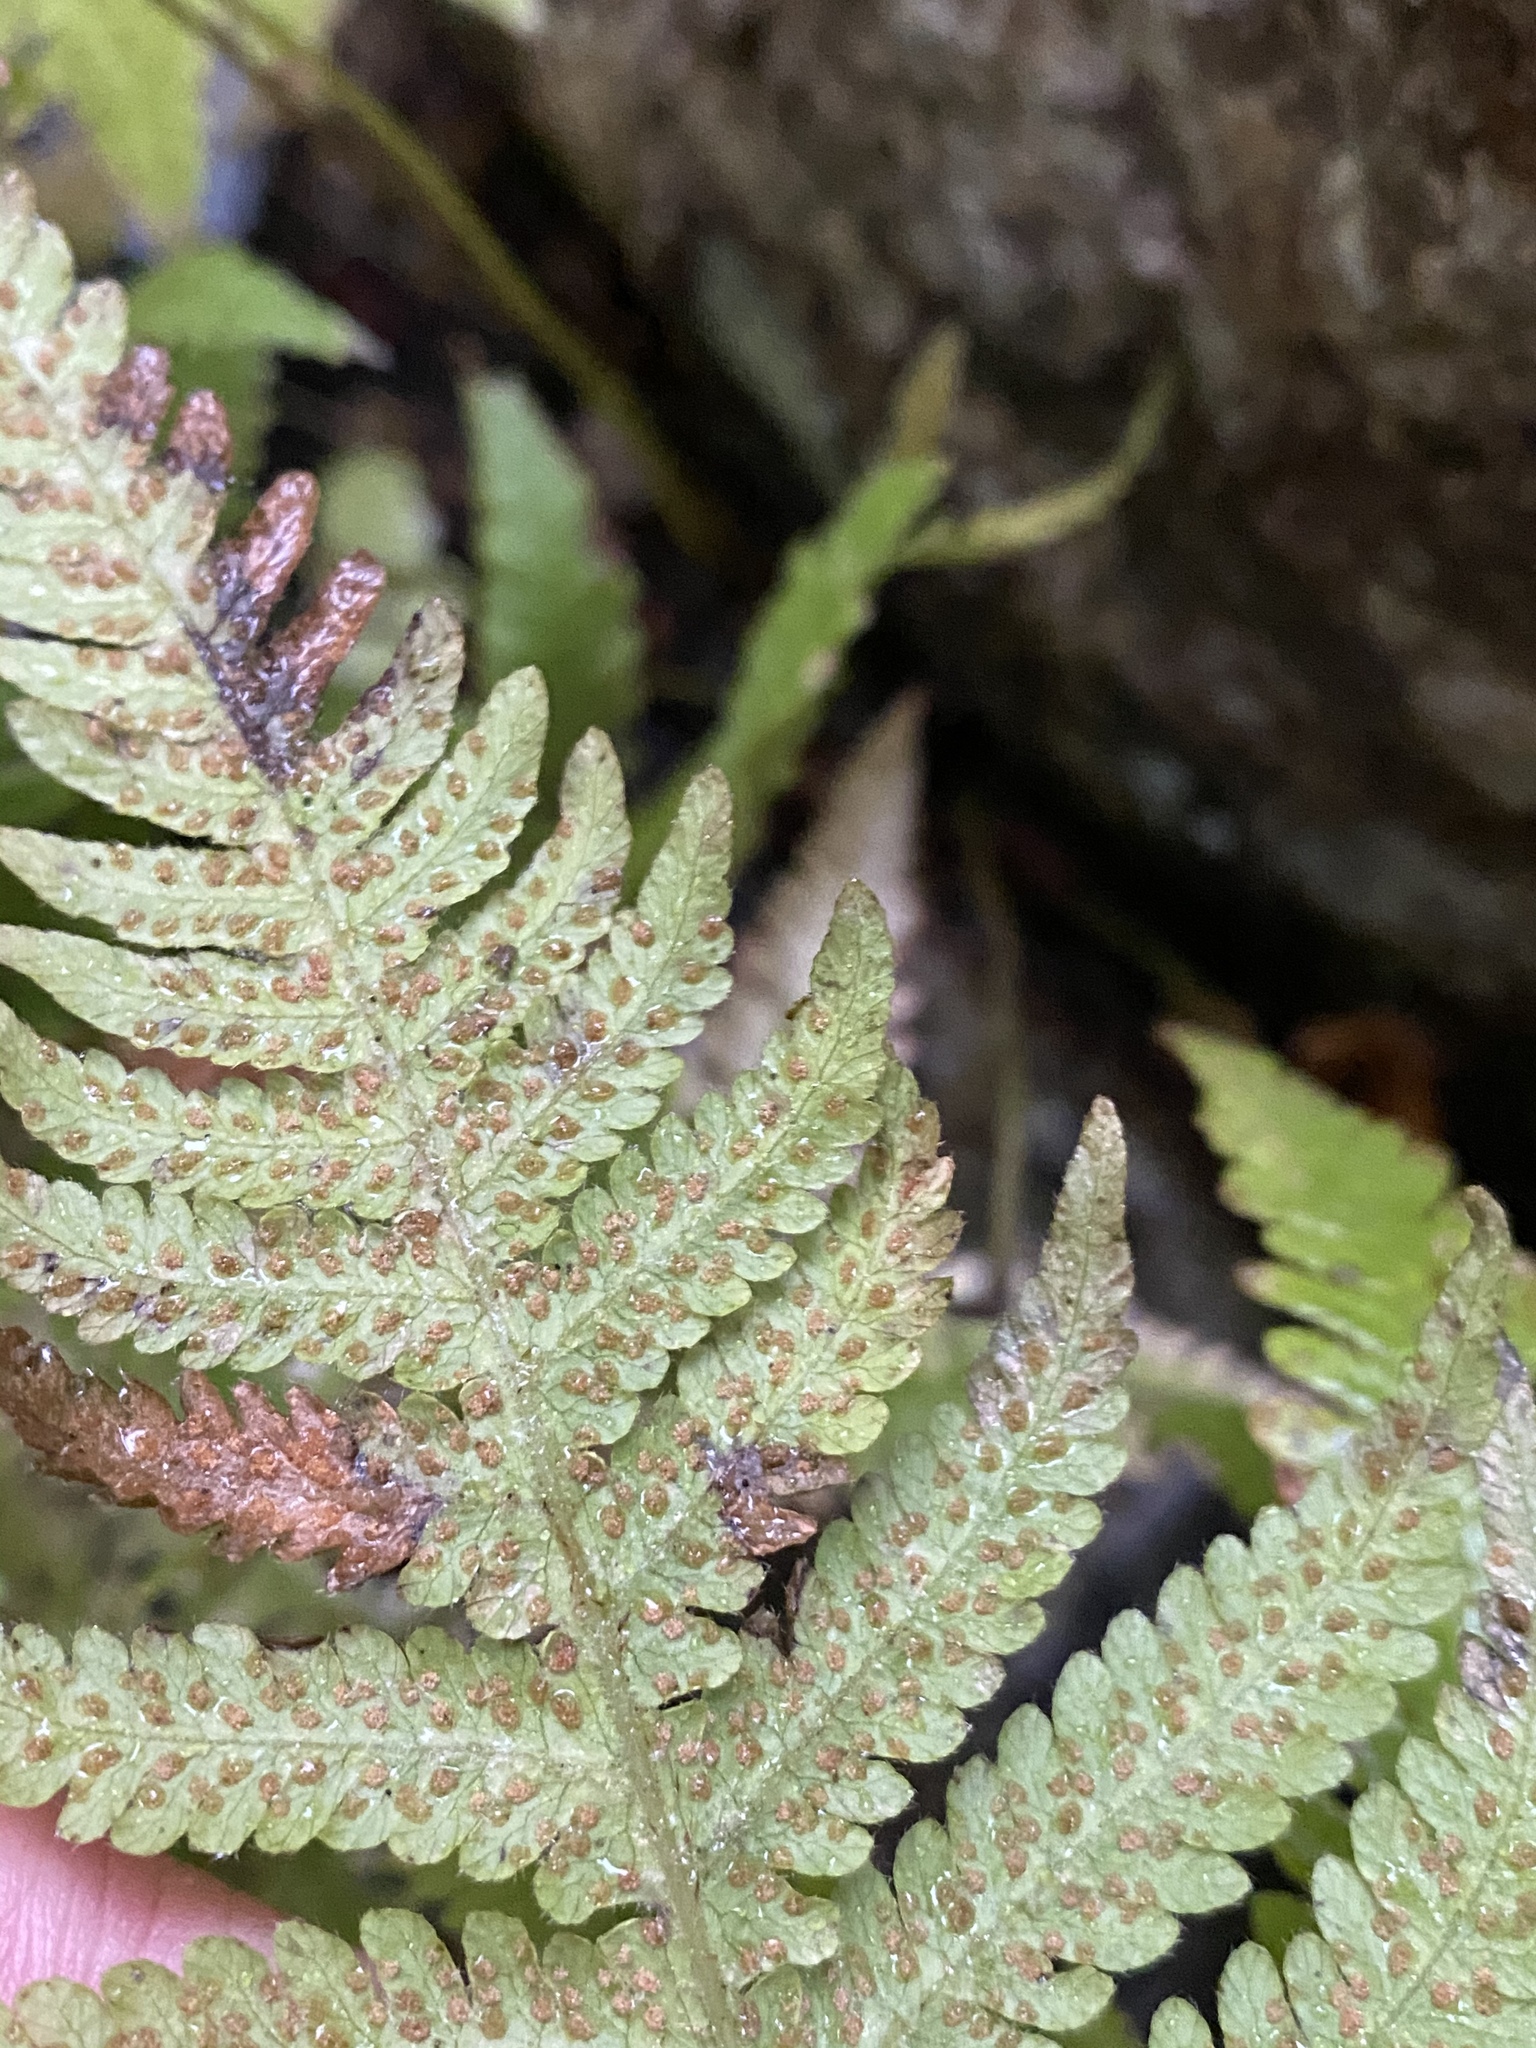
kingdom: Plantae
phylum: Tracheophyta
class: Polypodiopsida
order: Polypodiales
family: Thelypteridaceae
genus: Phegopteris
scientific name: Phegopteris connectilis
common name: Beech fern
